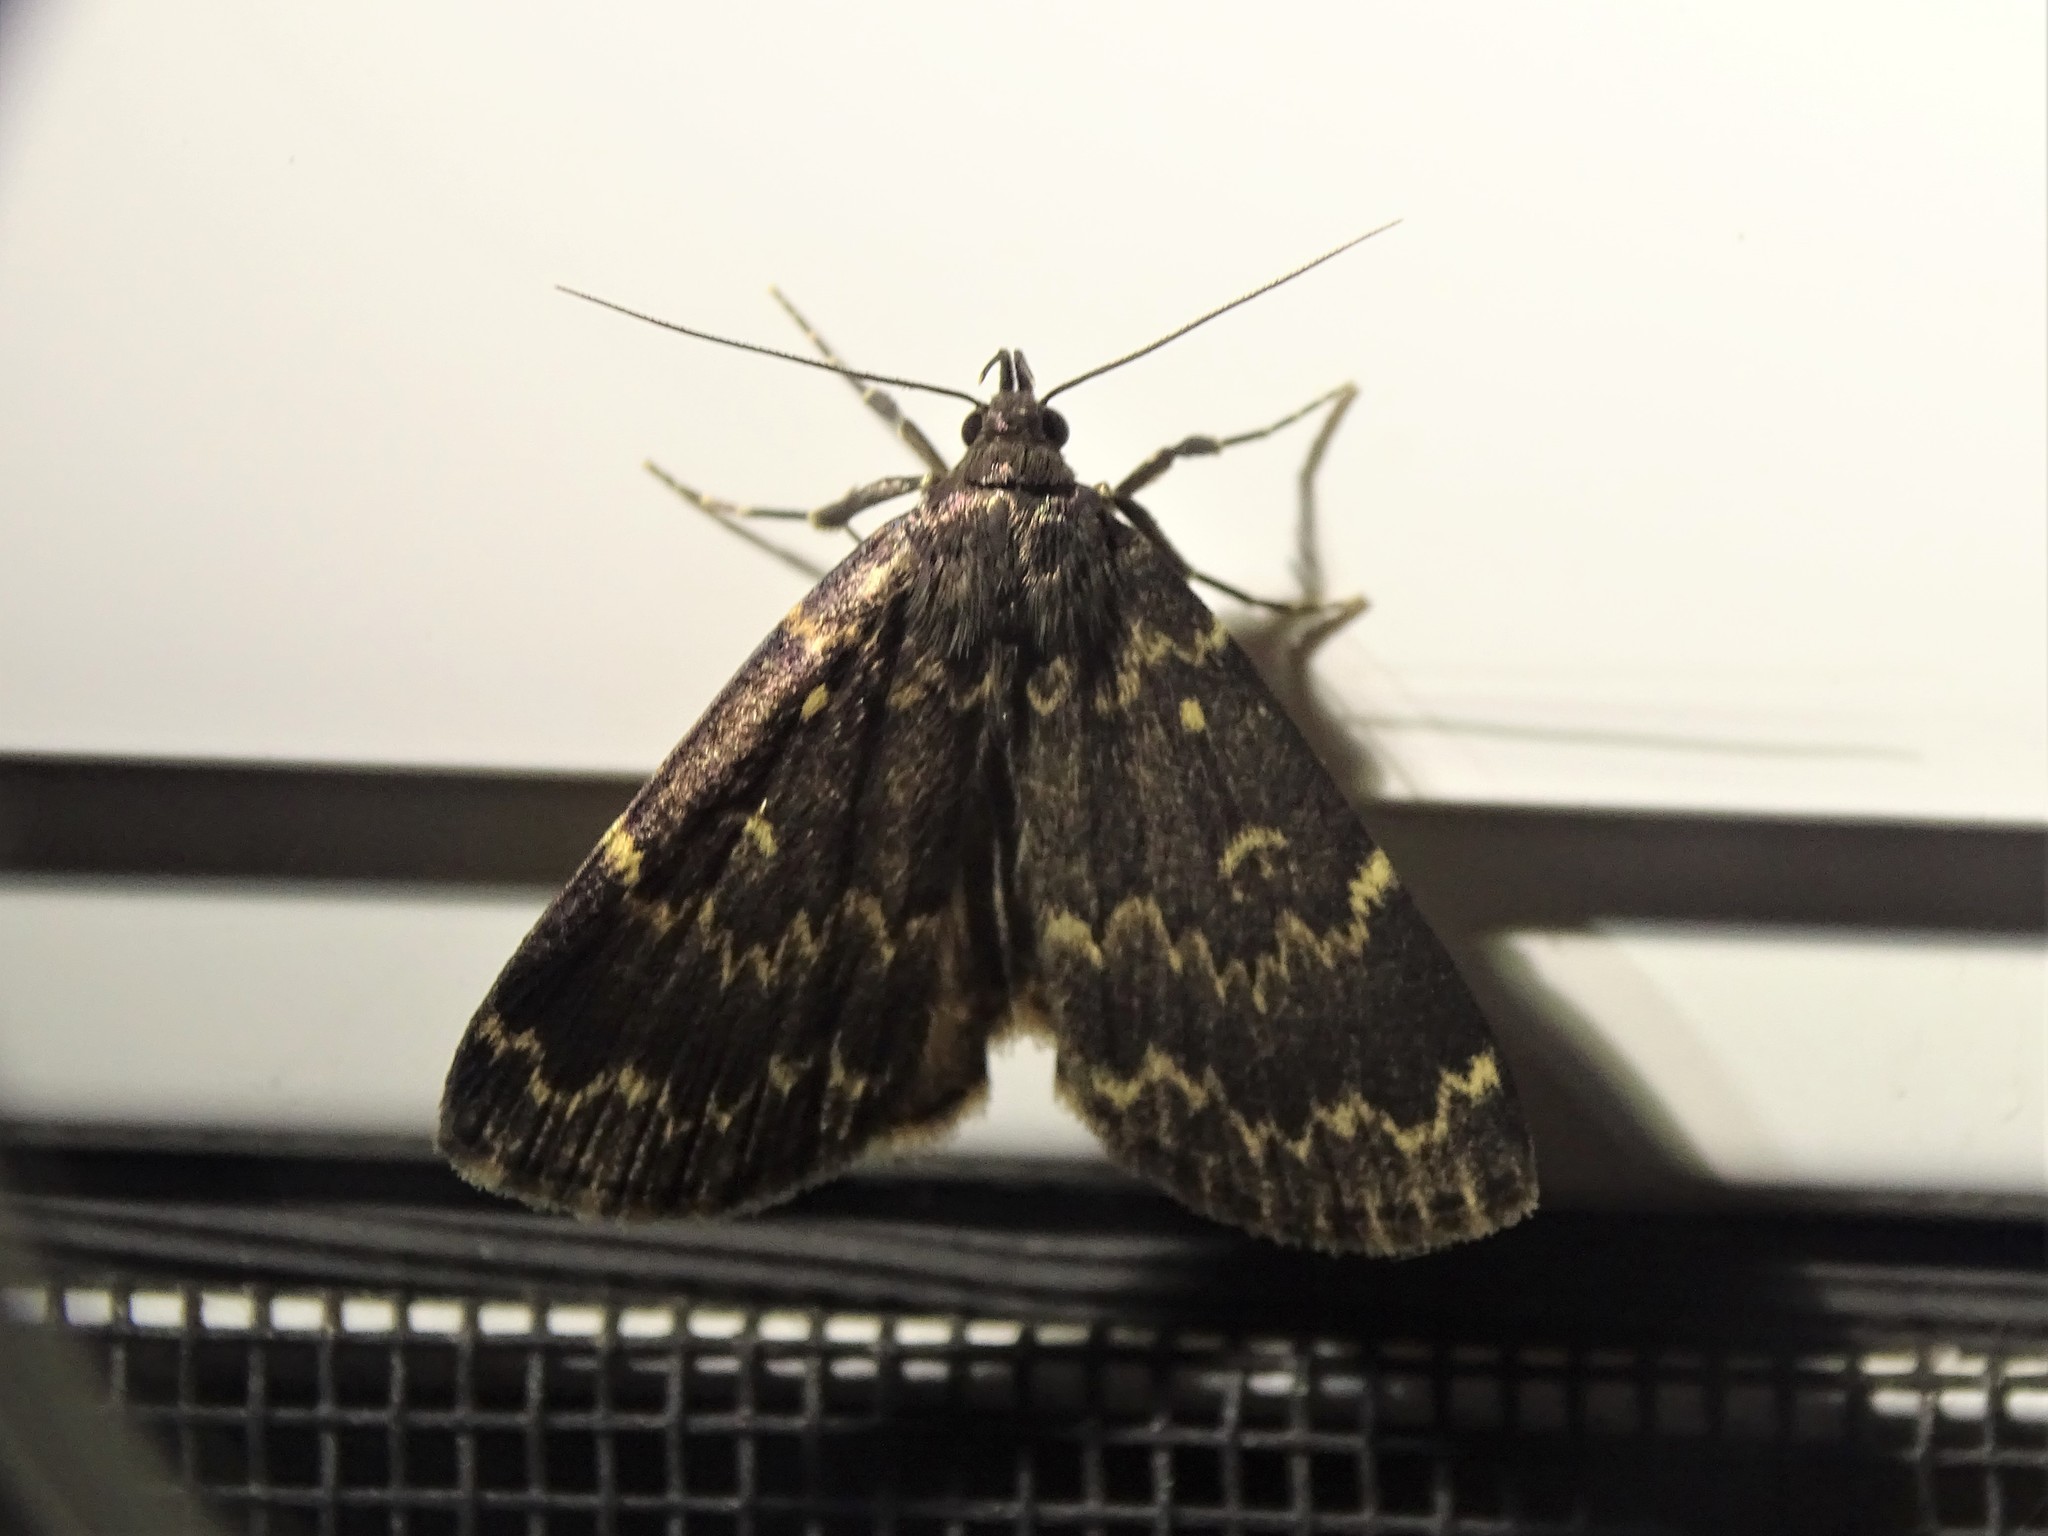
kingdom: Animalia
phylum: Arthropoda
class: Insecta
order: Lepidoptera
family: Erebidae
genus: Idia
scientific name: Idia lubricalis
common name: Twin-striped tabby
